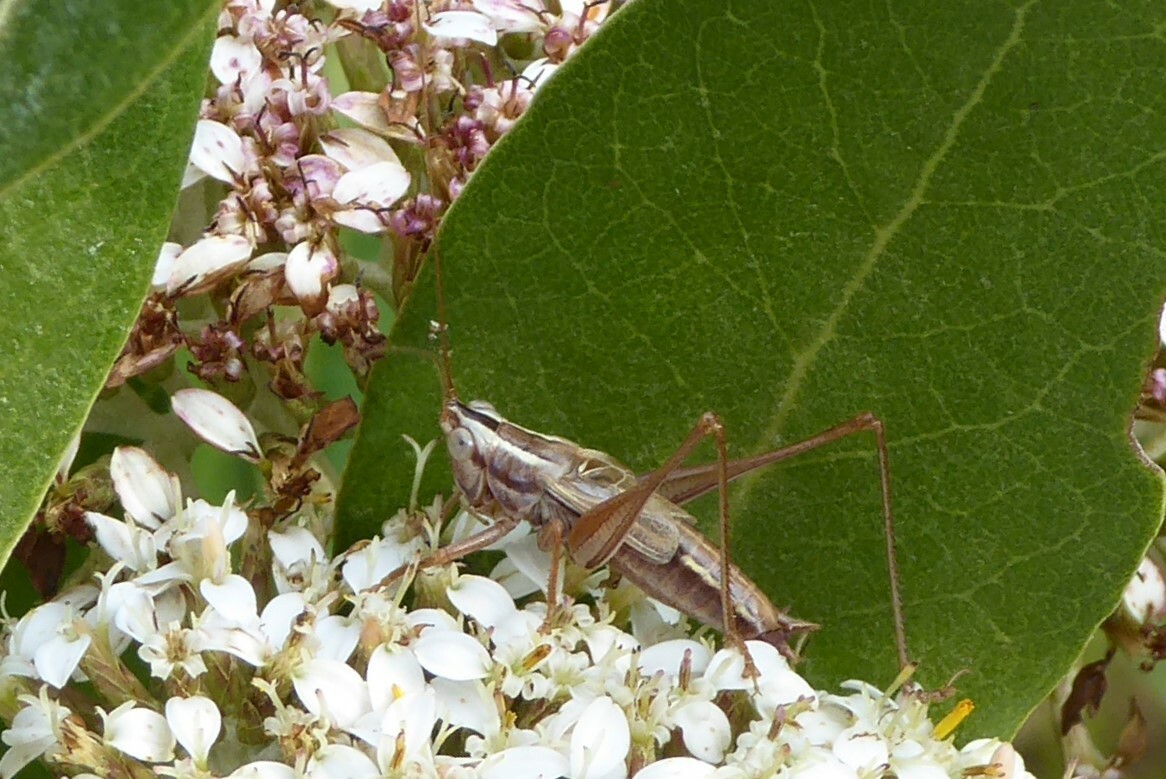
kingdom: Animalia
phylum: Arthropoda
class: Insecta
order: Orthoptera
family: Tettigoniidae
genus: Conocephalus
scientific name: Conocephalus bilineatus
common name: Small meadow katydid
